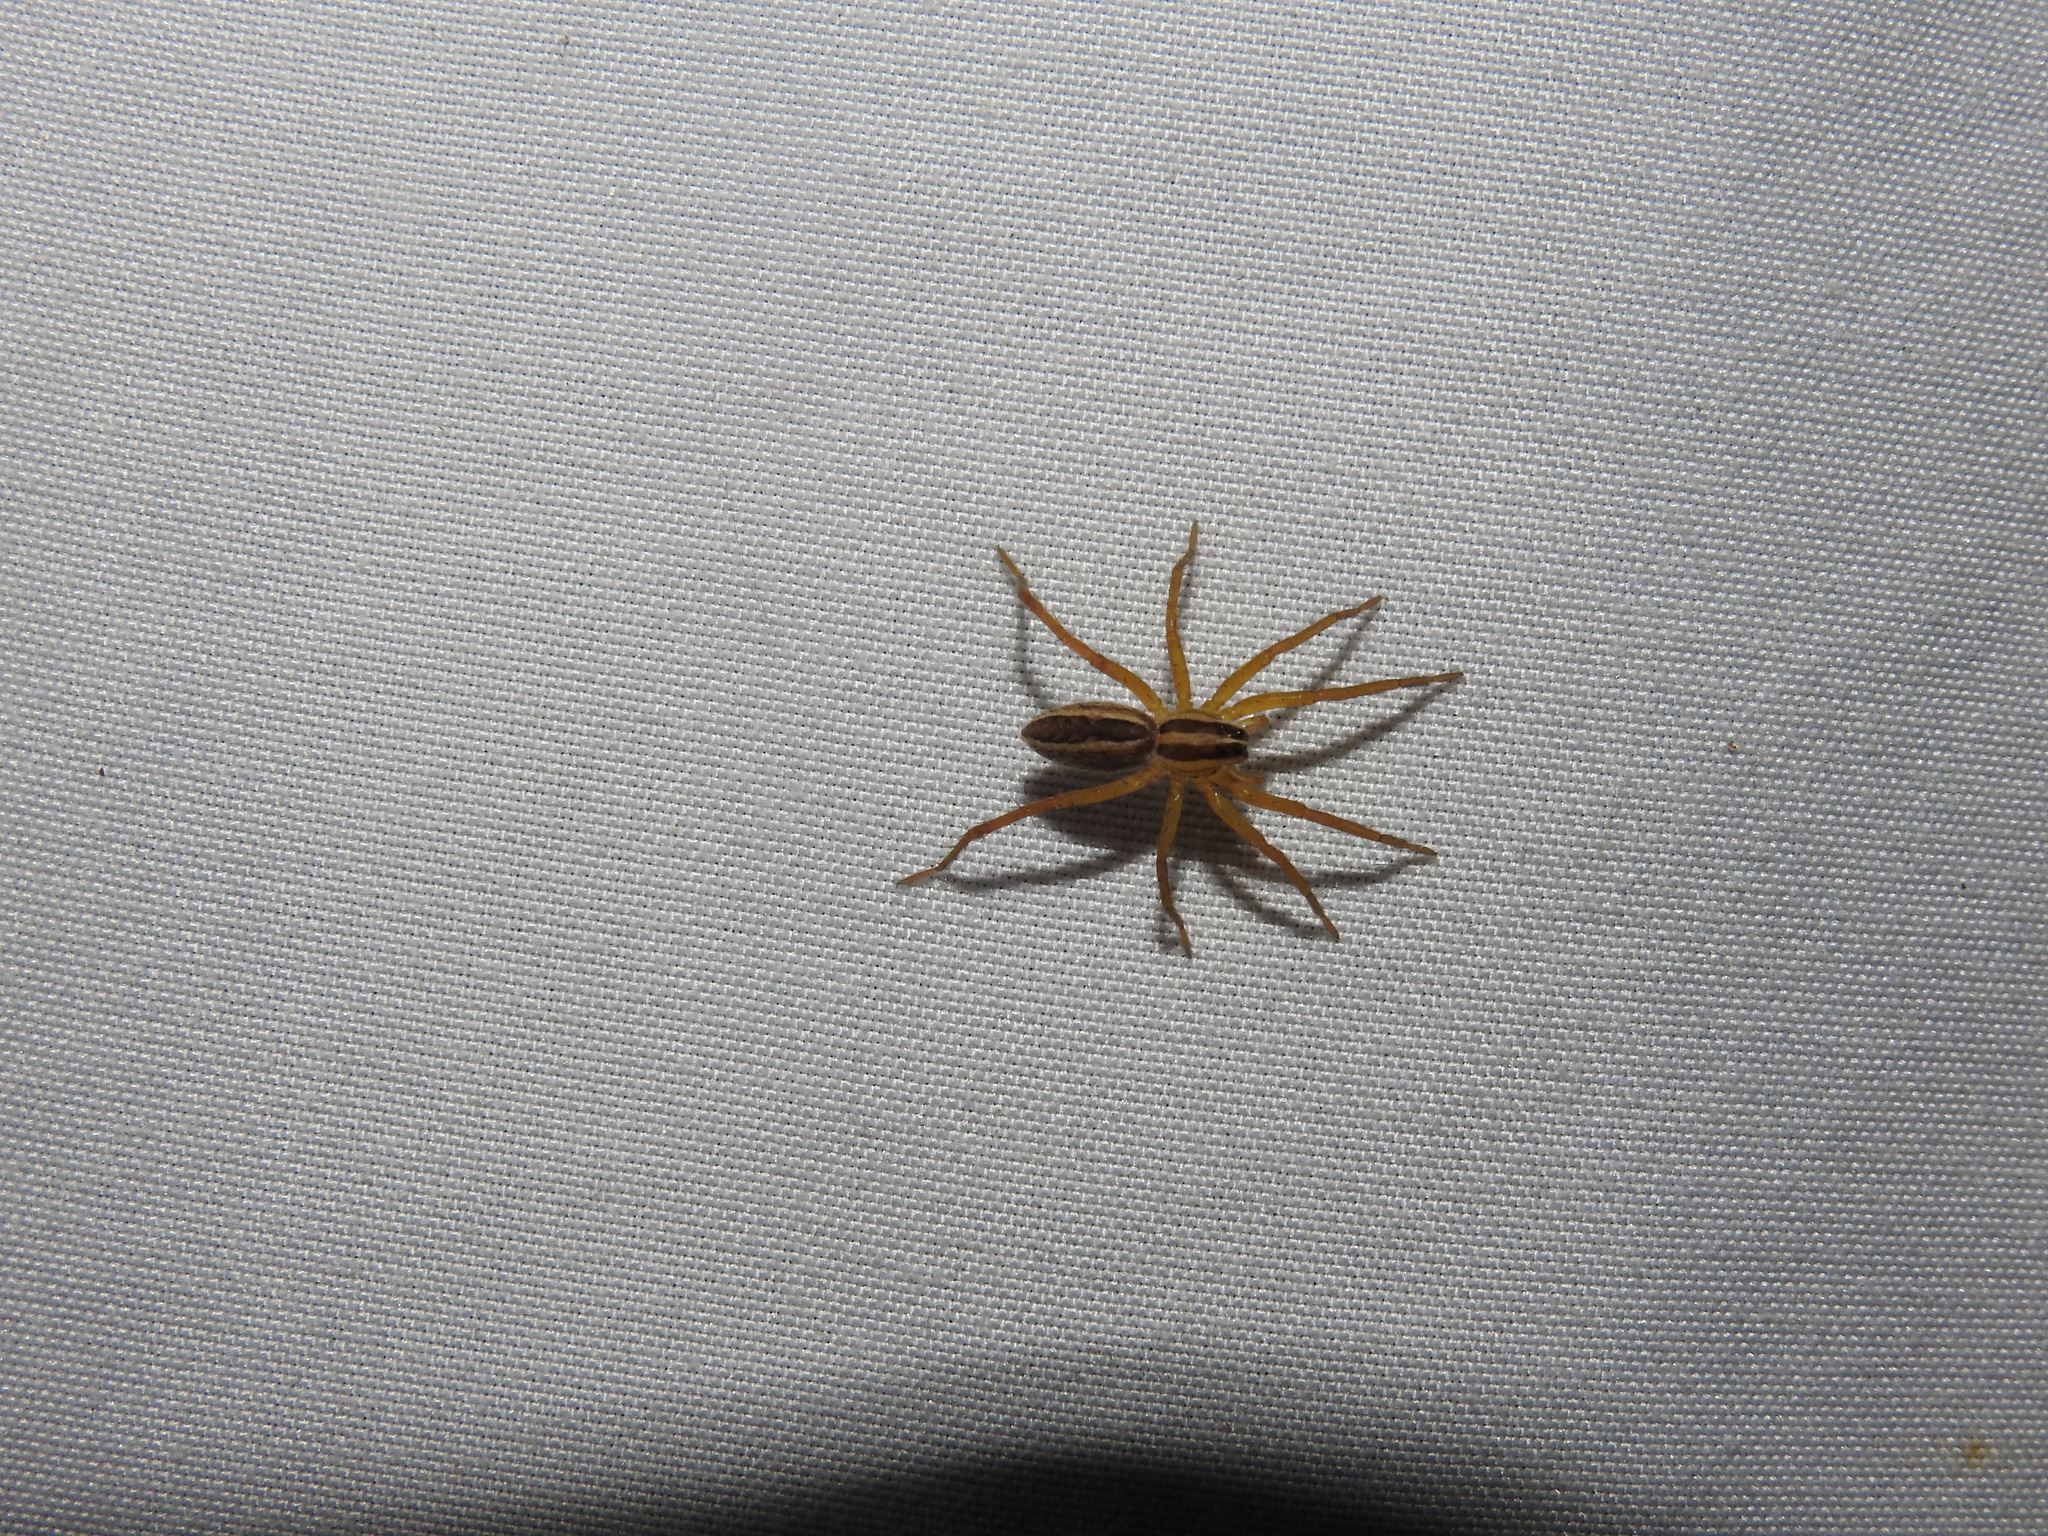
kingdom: Animalia
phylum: Arthropoda
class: Arachnida
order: Araneae
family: Lycosidae
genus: Rabidosa
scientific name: Rabidosa rabida
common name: Rabid wolf spider
